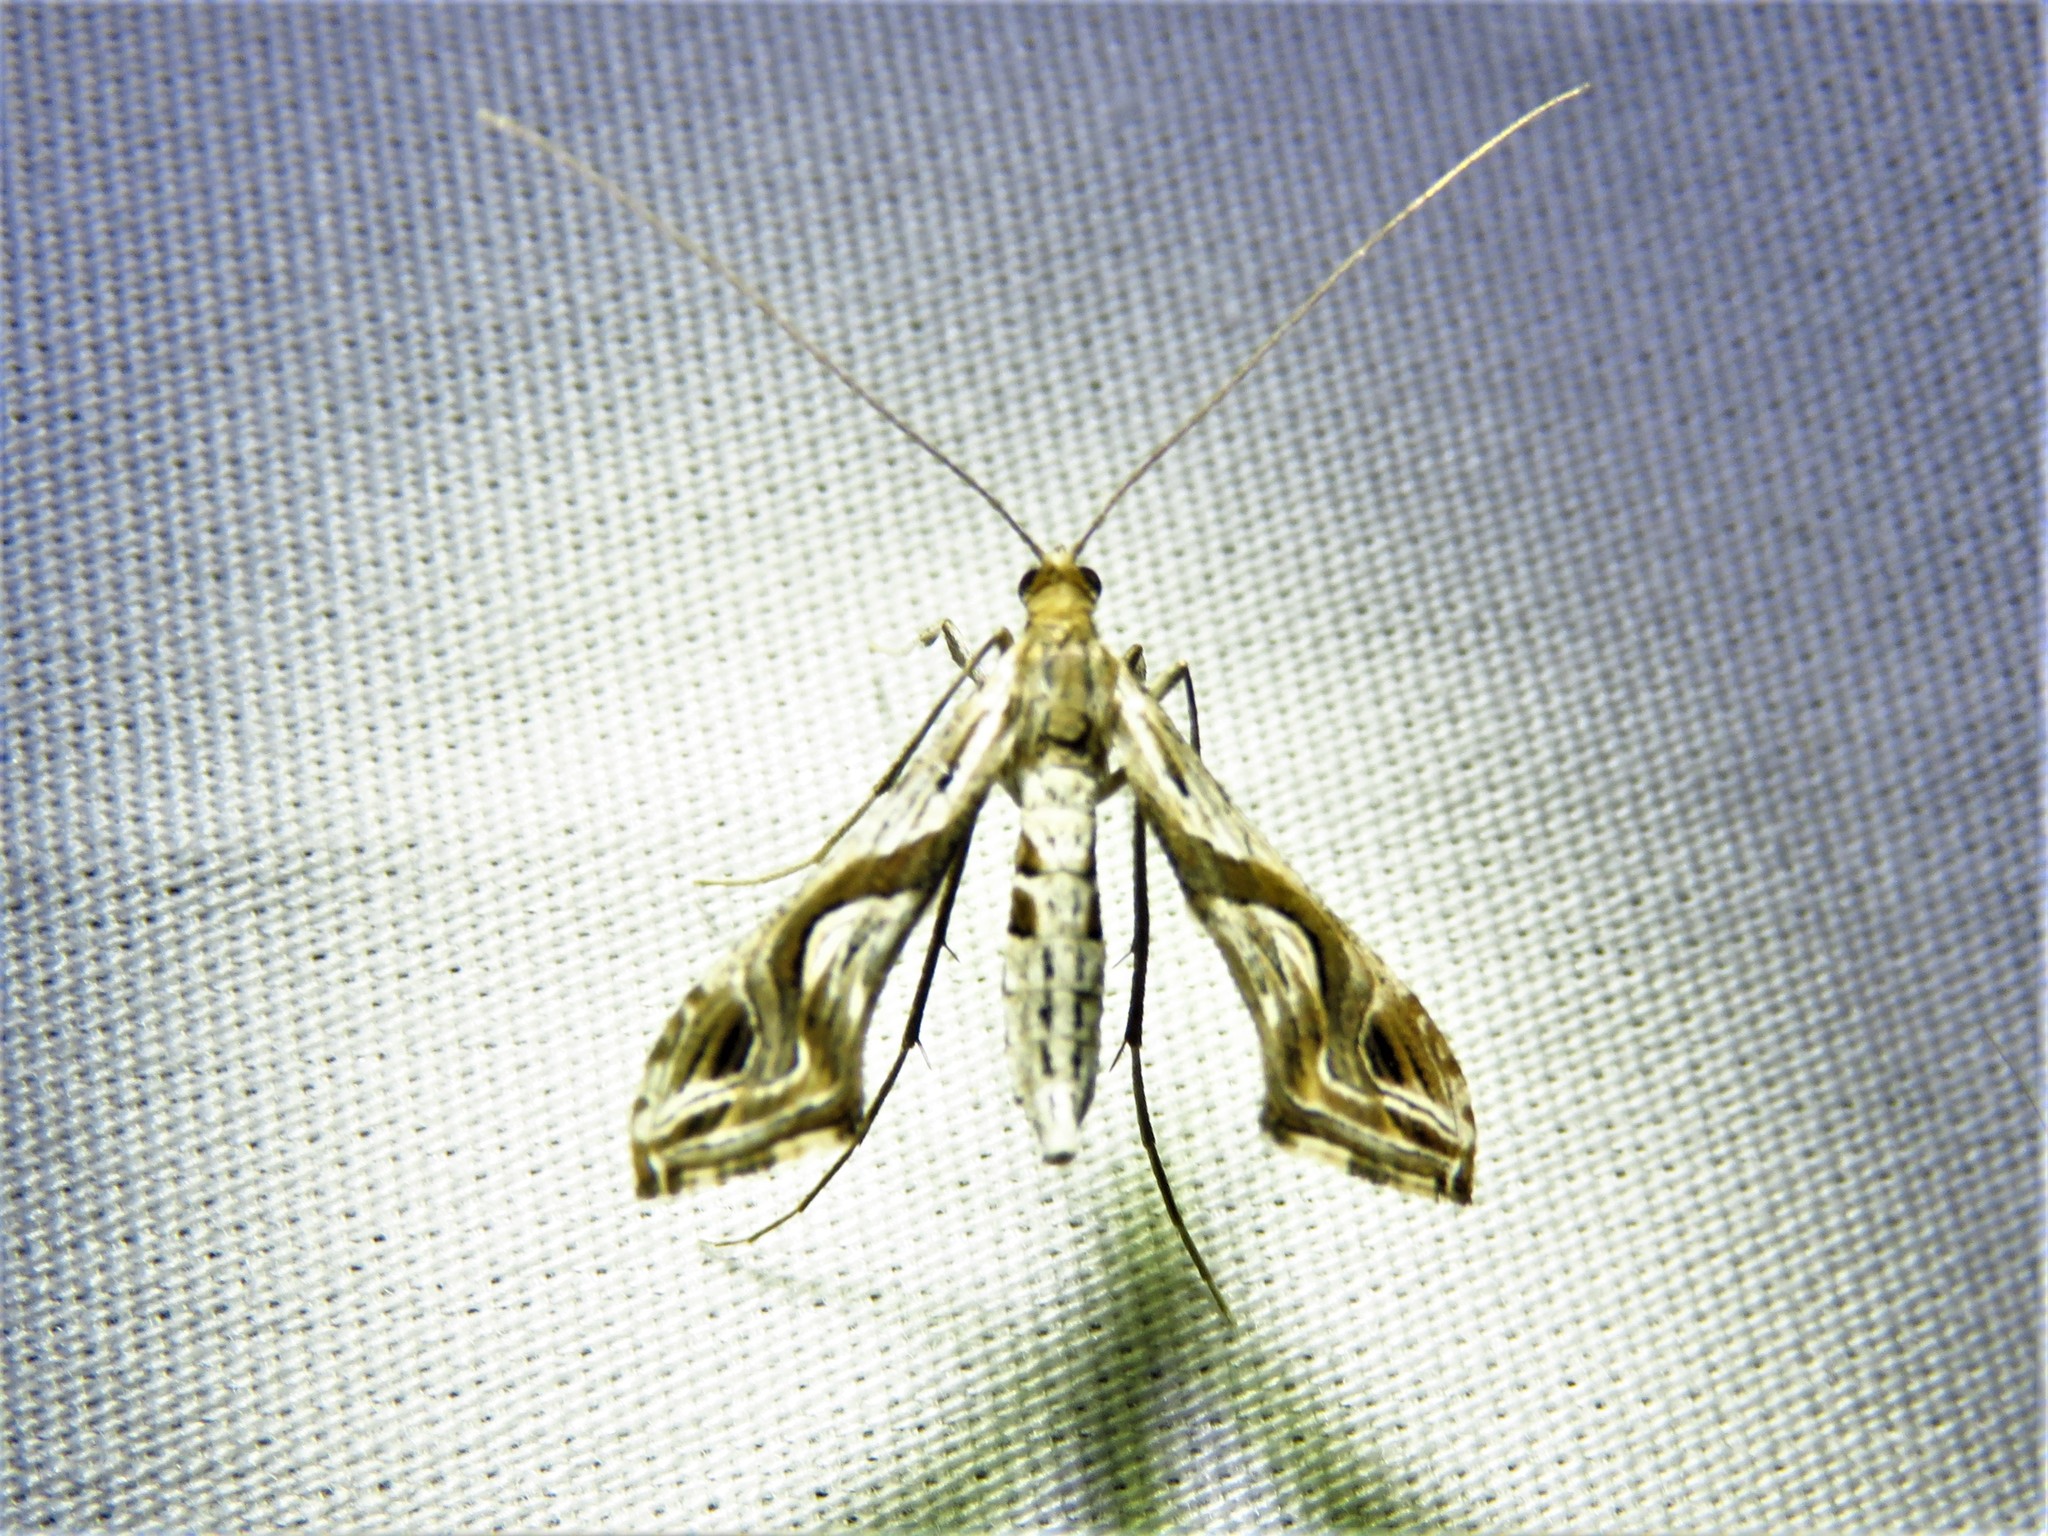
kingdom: Animalia
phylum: Arthropoda
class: Insecta
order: Lepidoptera
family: Crambidae
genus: Lineodes
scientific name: Lineodes integra
